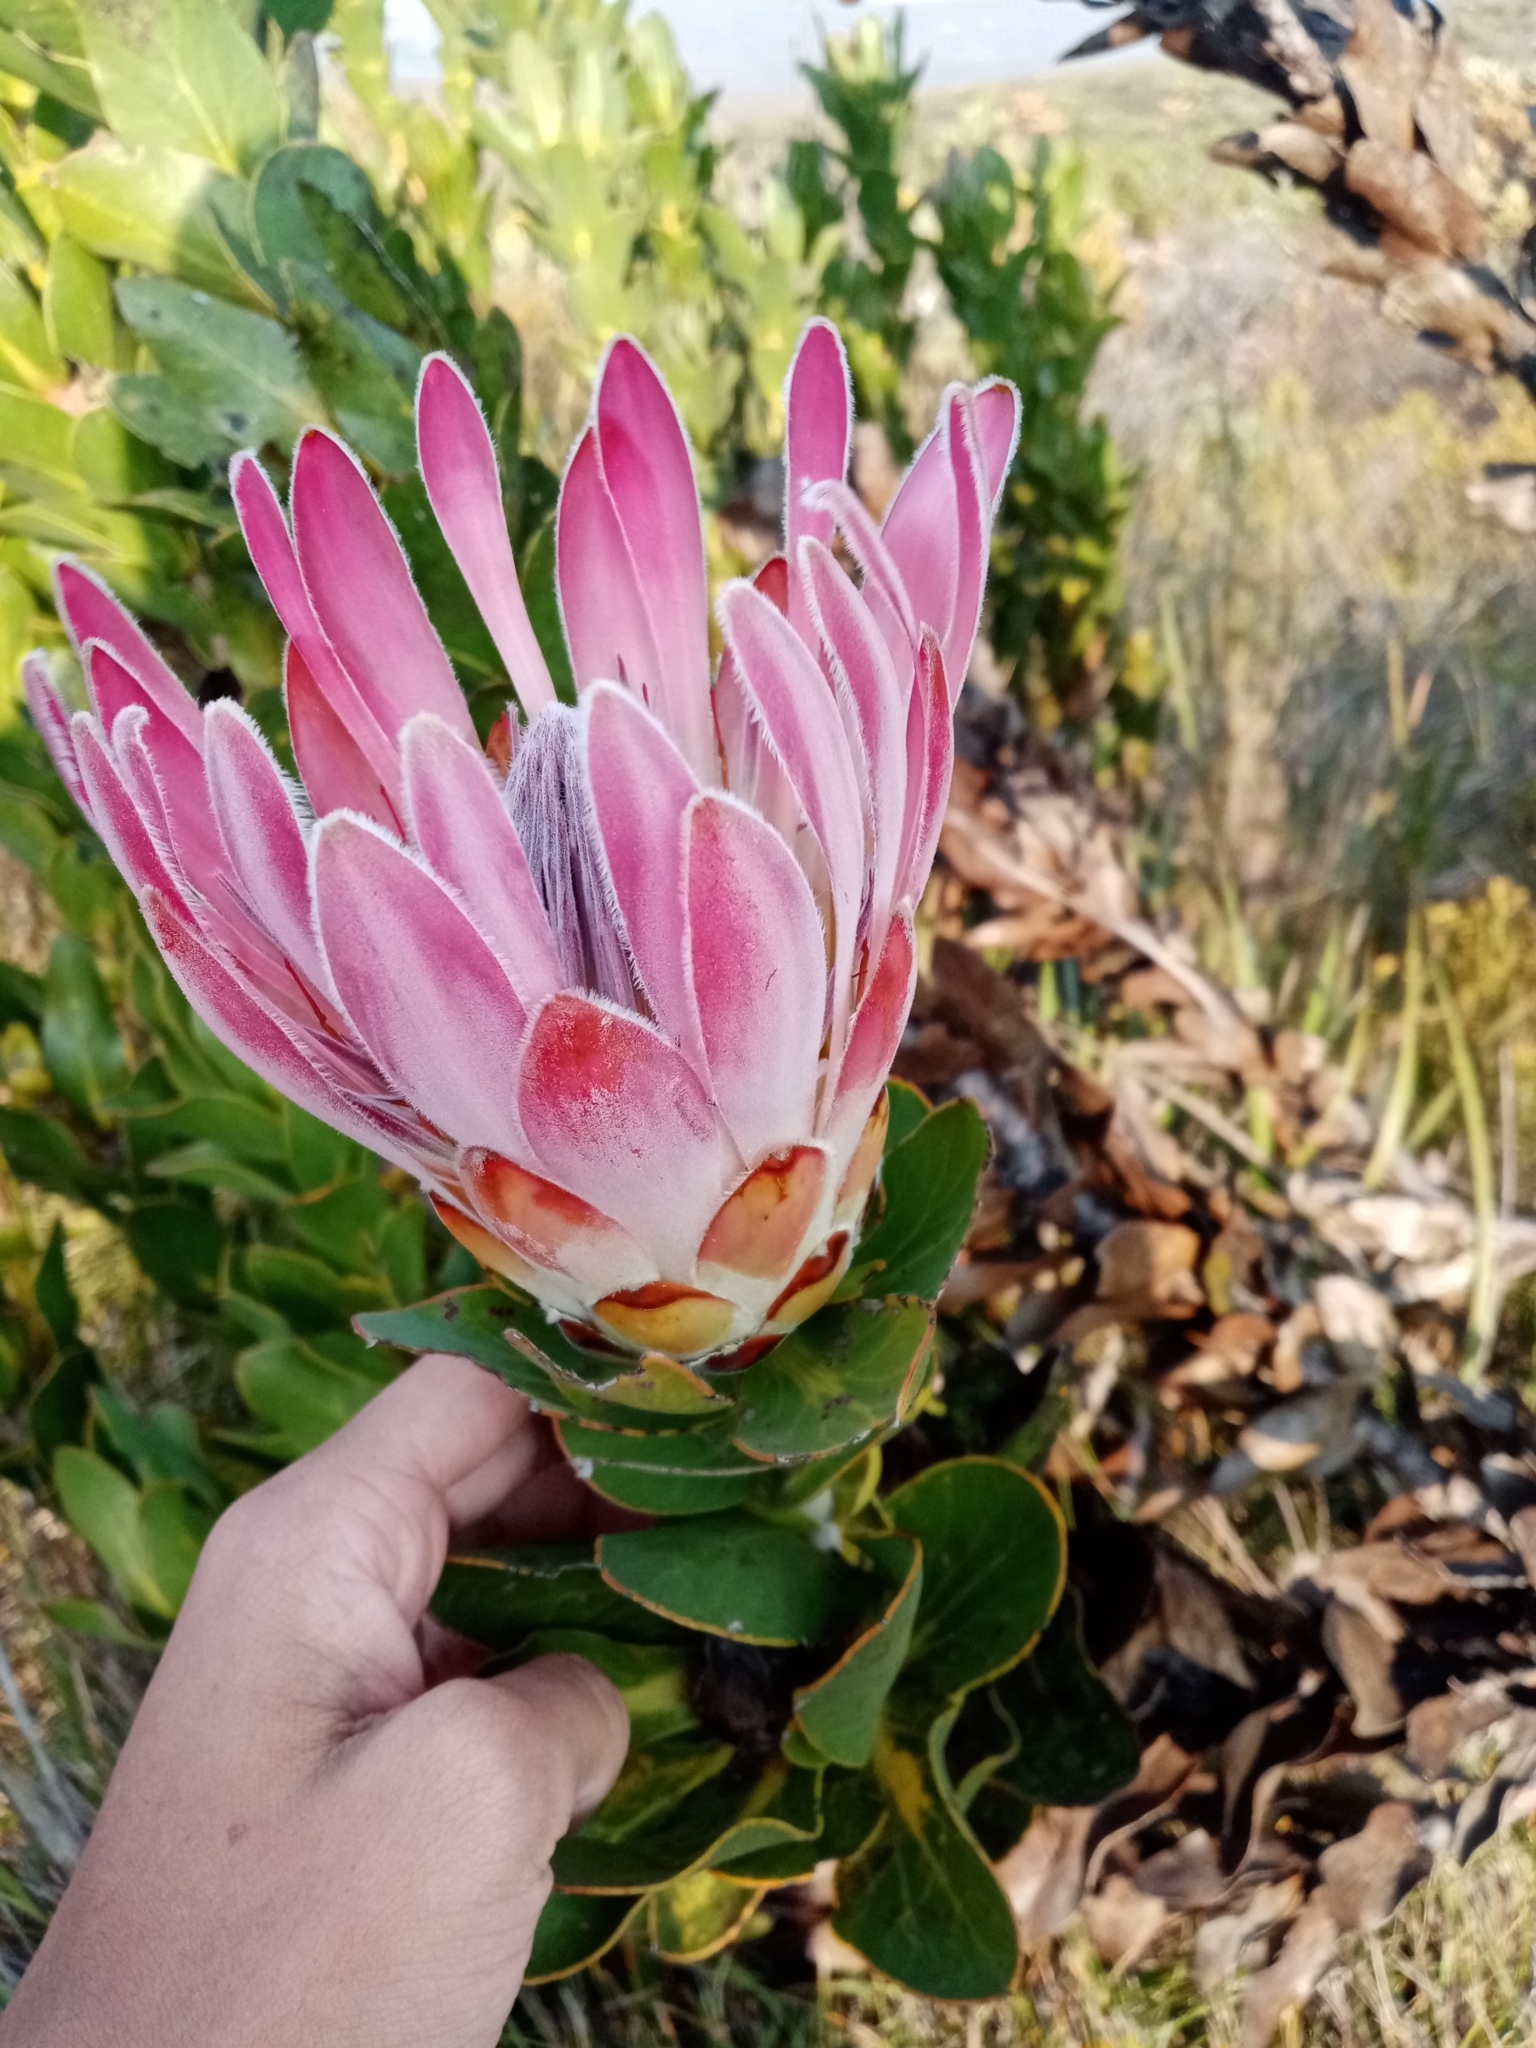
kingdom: Plantae
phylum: Tracheophyta
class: Magnoliopsida
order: Proteales
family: Proteaceae
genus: Protea
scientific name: Protea compacta
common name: Bot river protea
